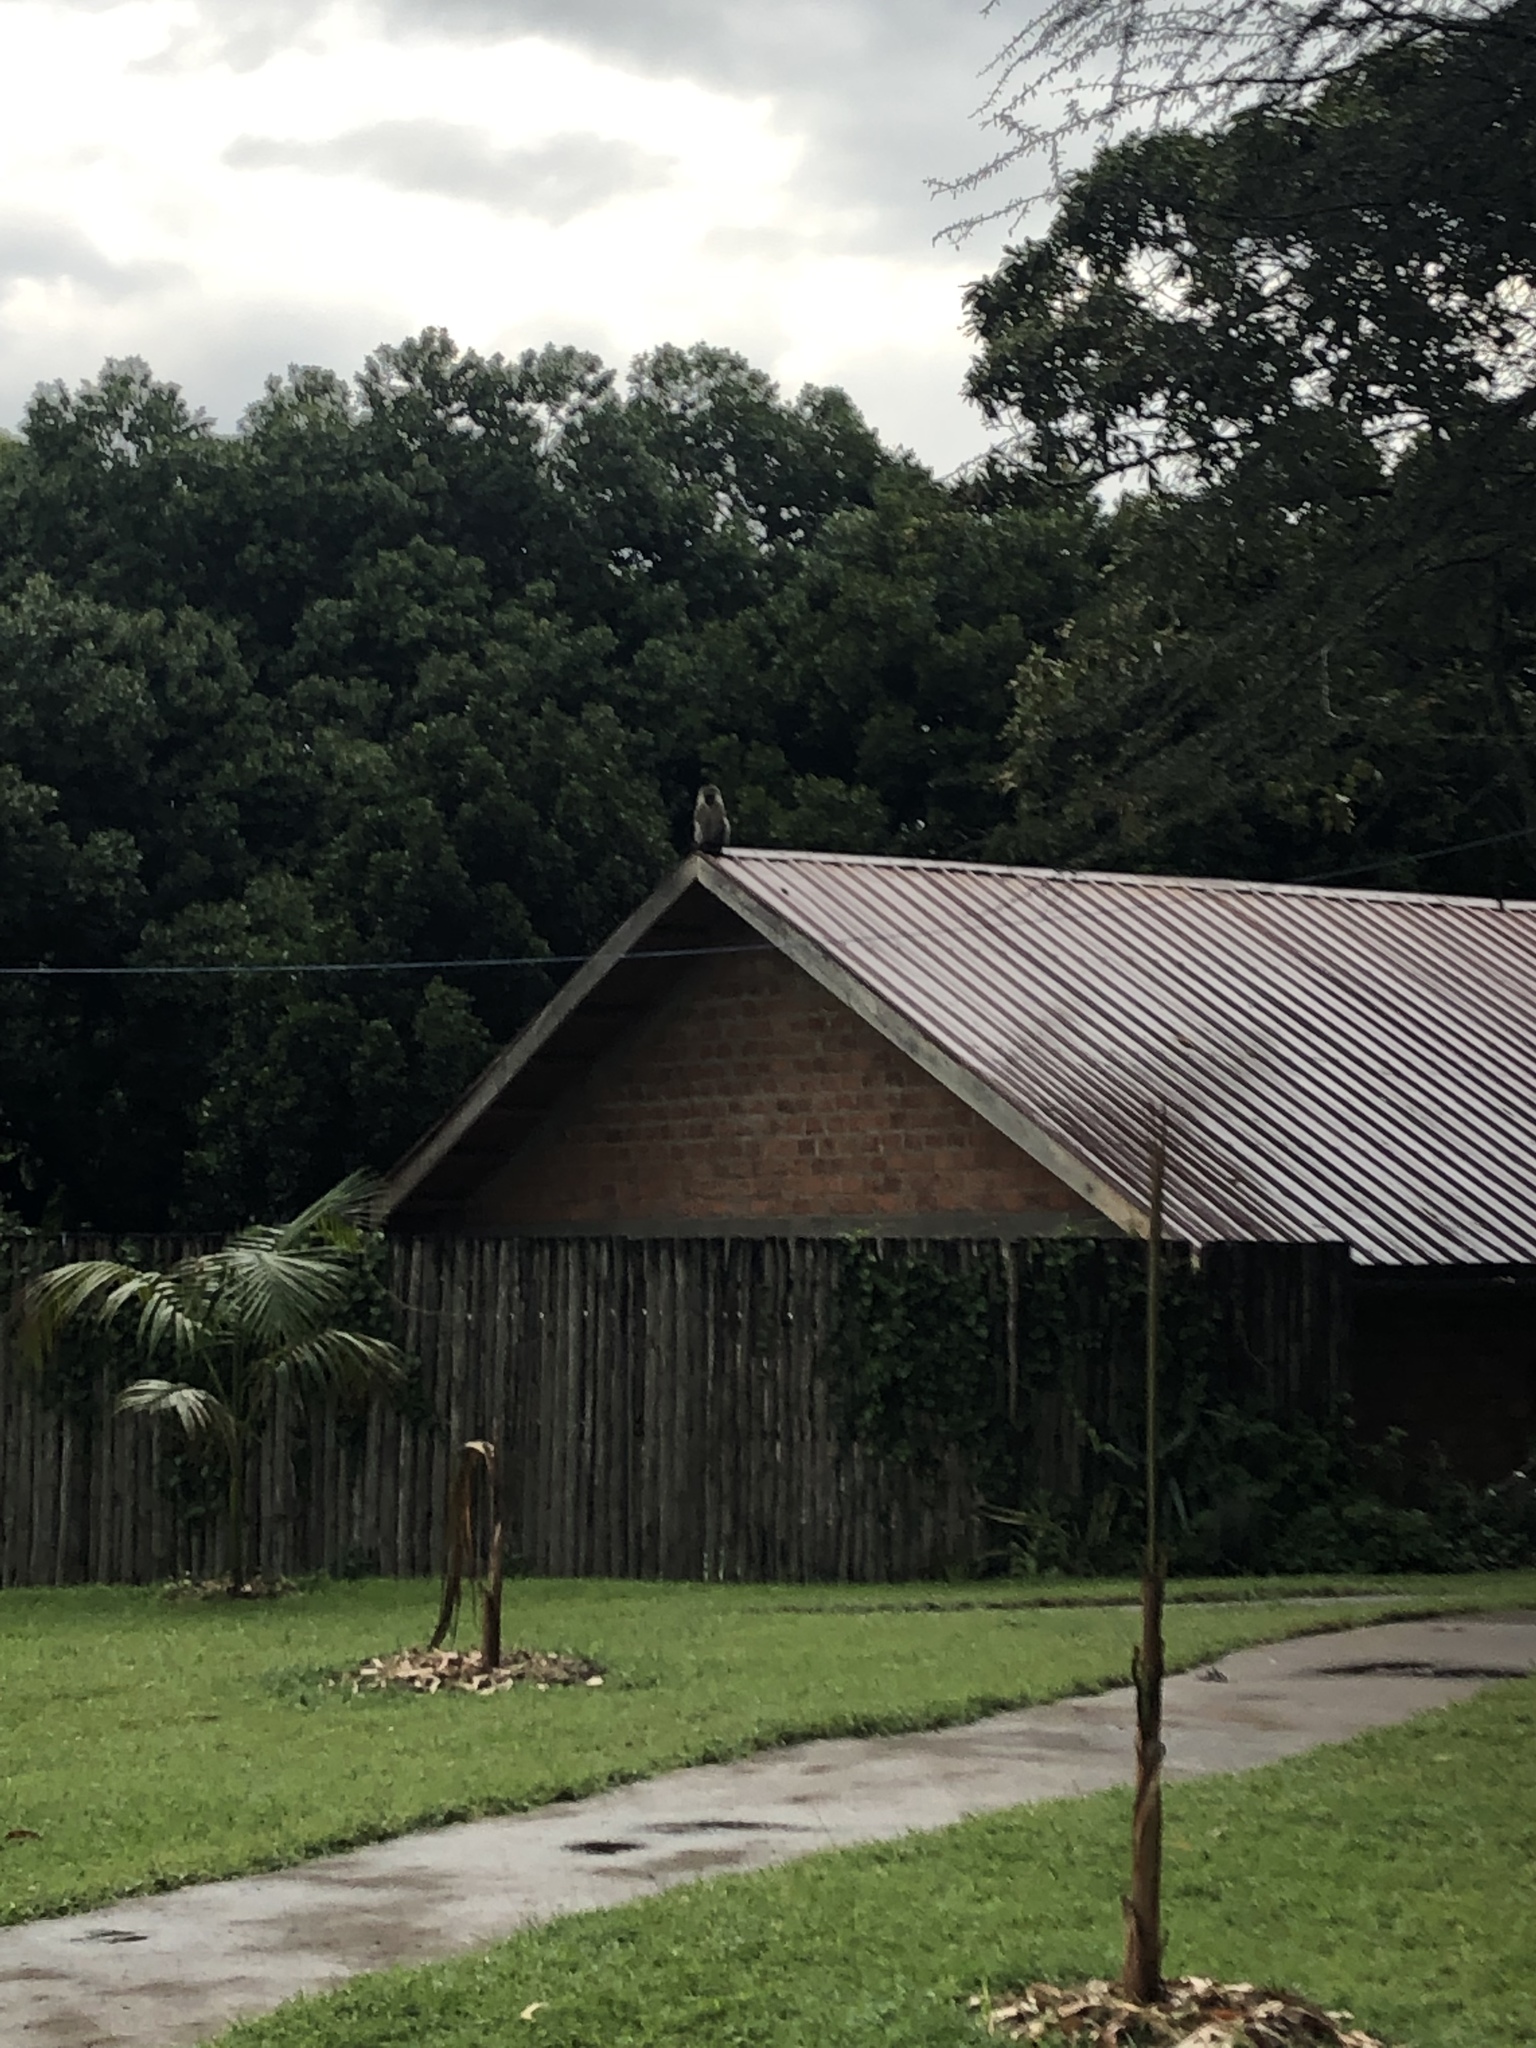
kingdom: Animalia
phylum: Chordata
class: Mammalia
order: Primates
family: Cercopithecidae
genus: Chlorocebus
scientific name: Chlorocebus pygerythrus
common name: Vervet monkey
